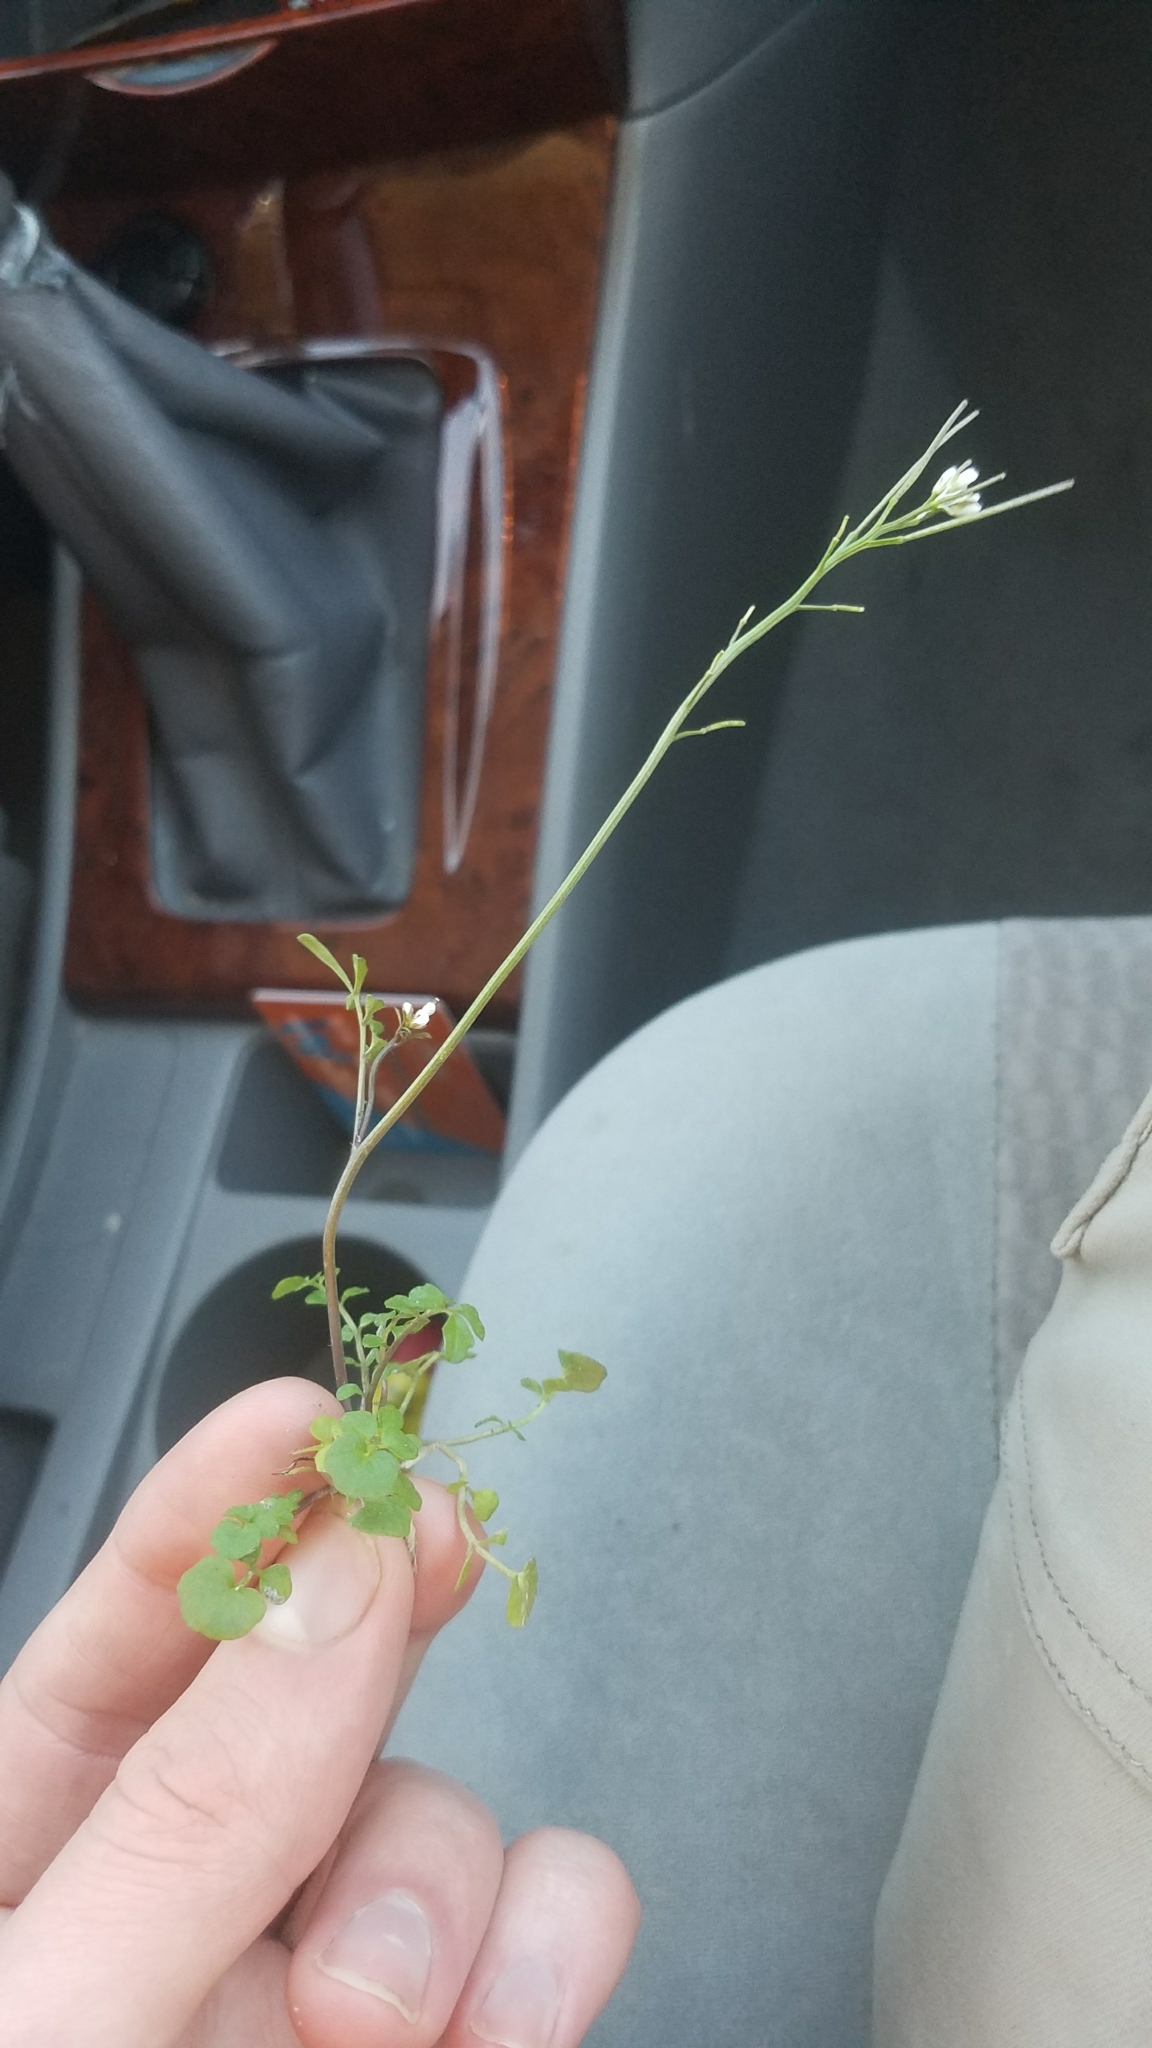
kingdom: Plantae
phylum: Tracheophyta
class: Magnoliopsida
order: Brassicales
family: Brassicaceae
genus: Cardamine
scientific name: Cardamine hirsuta
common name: Hairy bittercress
